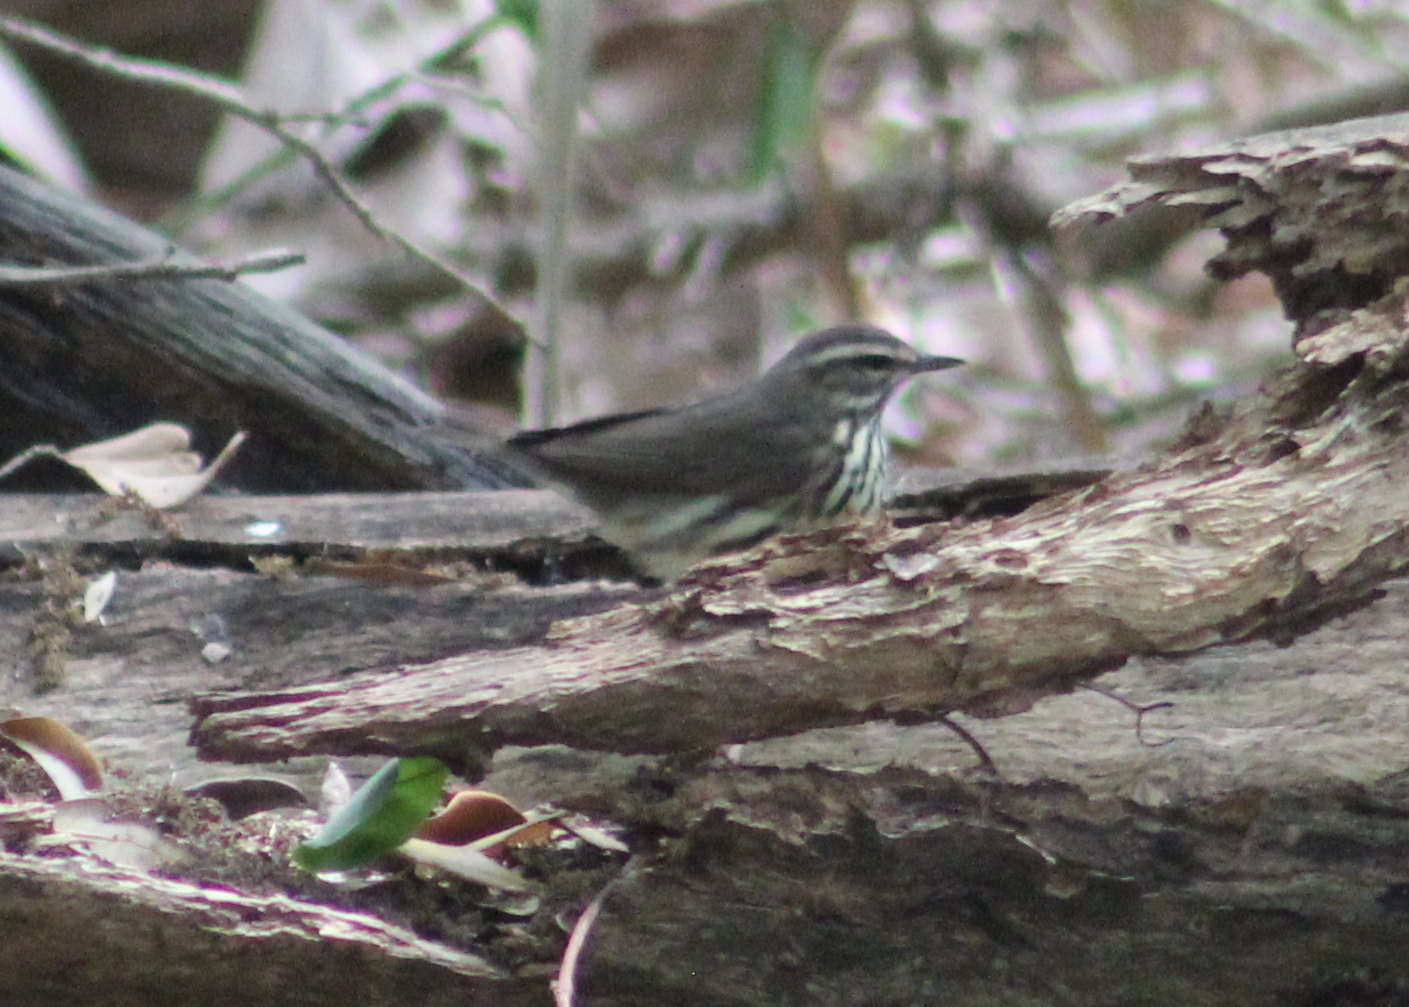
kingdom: Animalia
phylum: Chordata
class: Aves
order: Passeriformes
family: Parulidae
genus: Parkesia
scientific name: Parkesia noveboracensis
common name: Northern waterthrush
